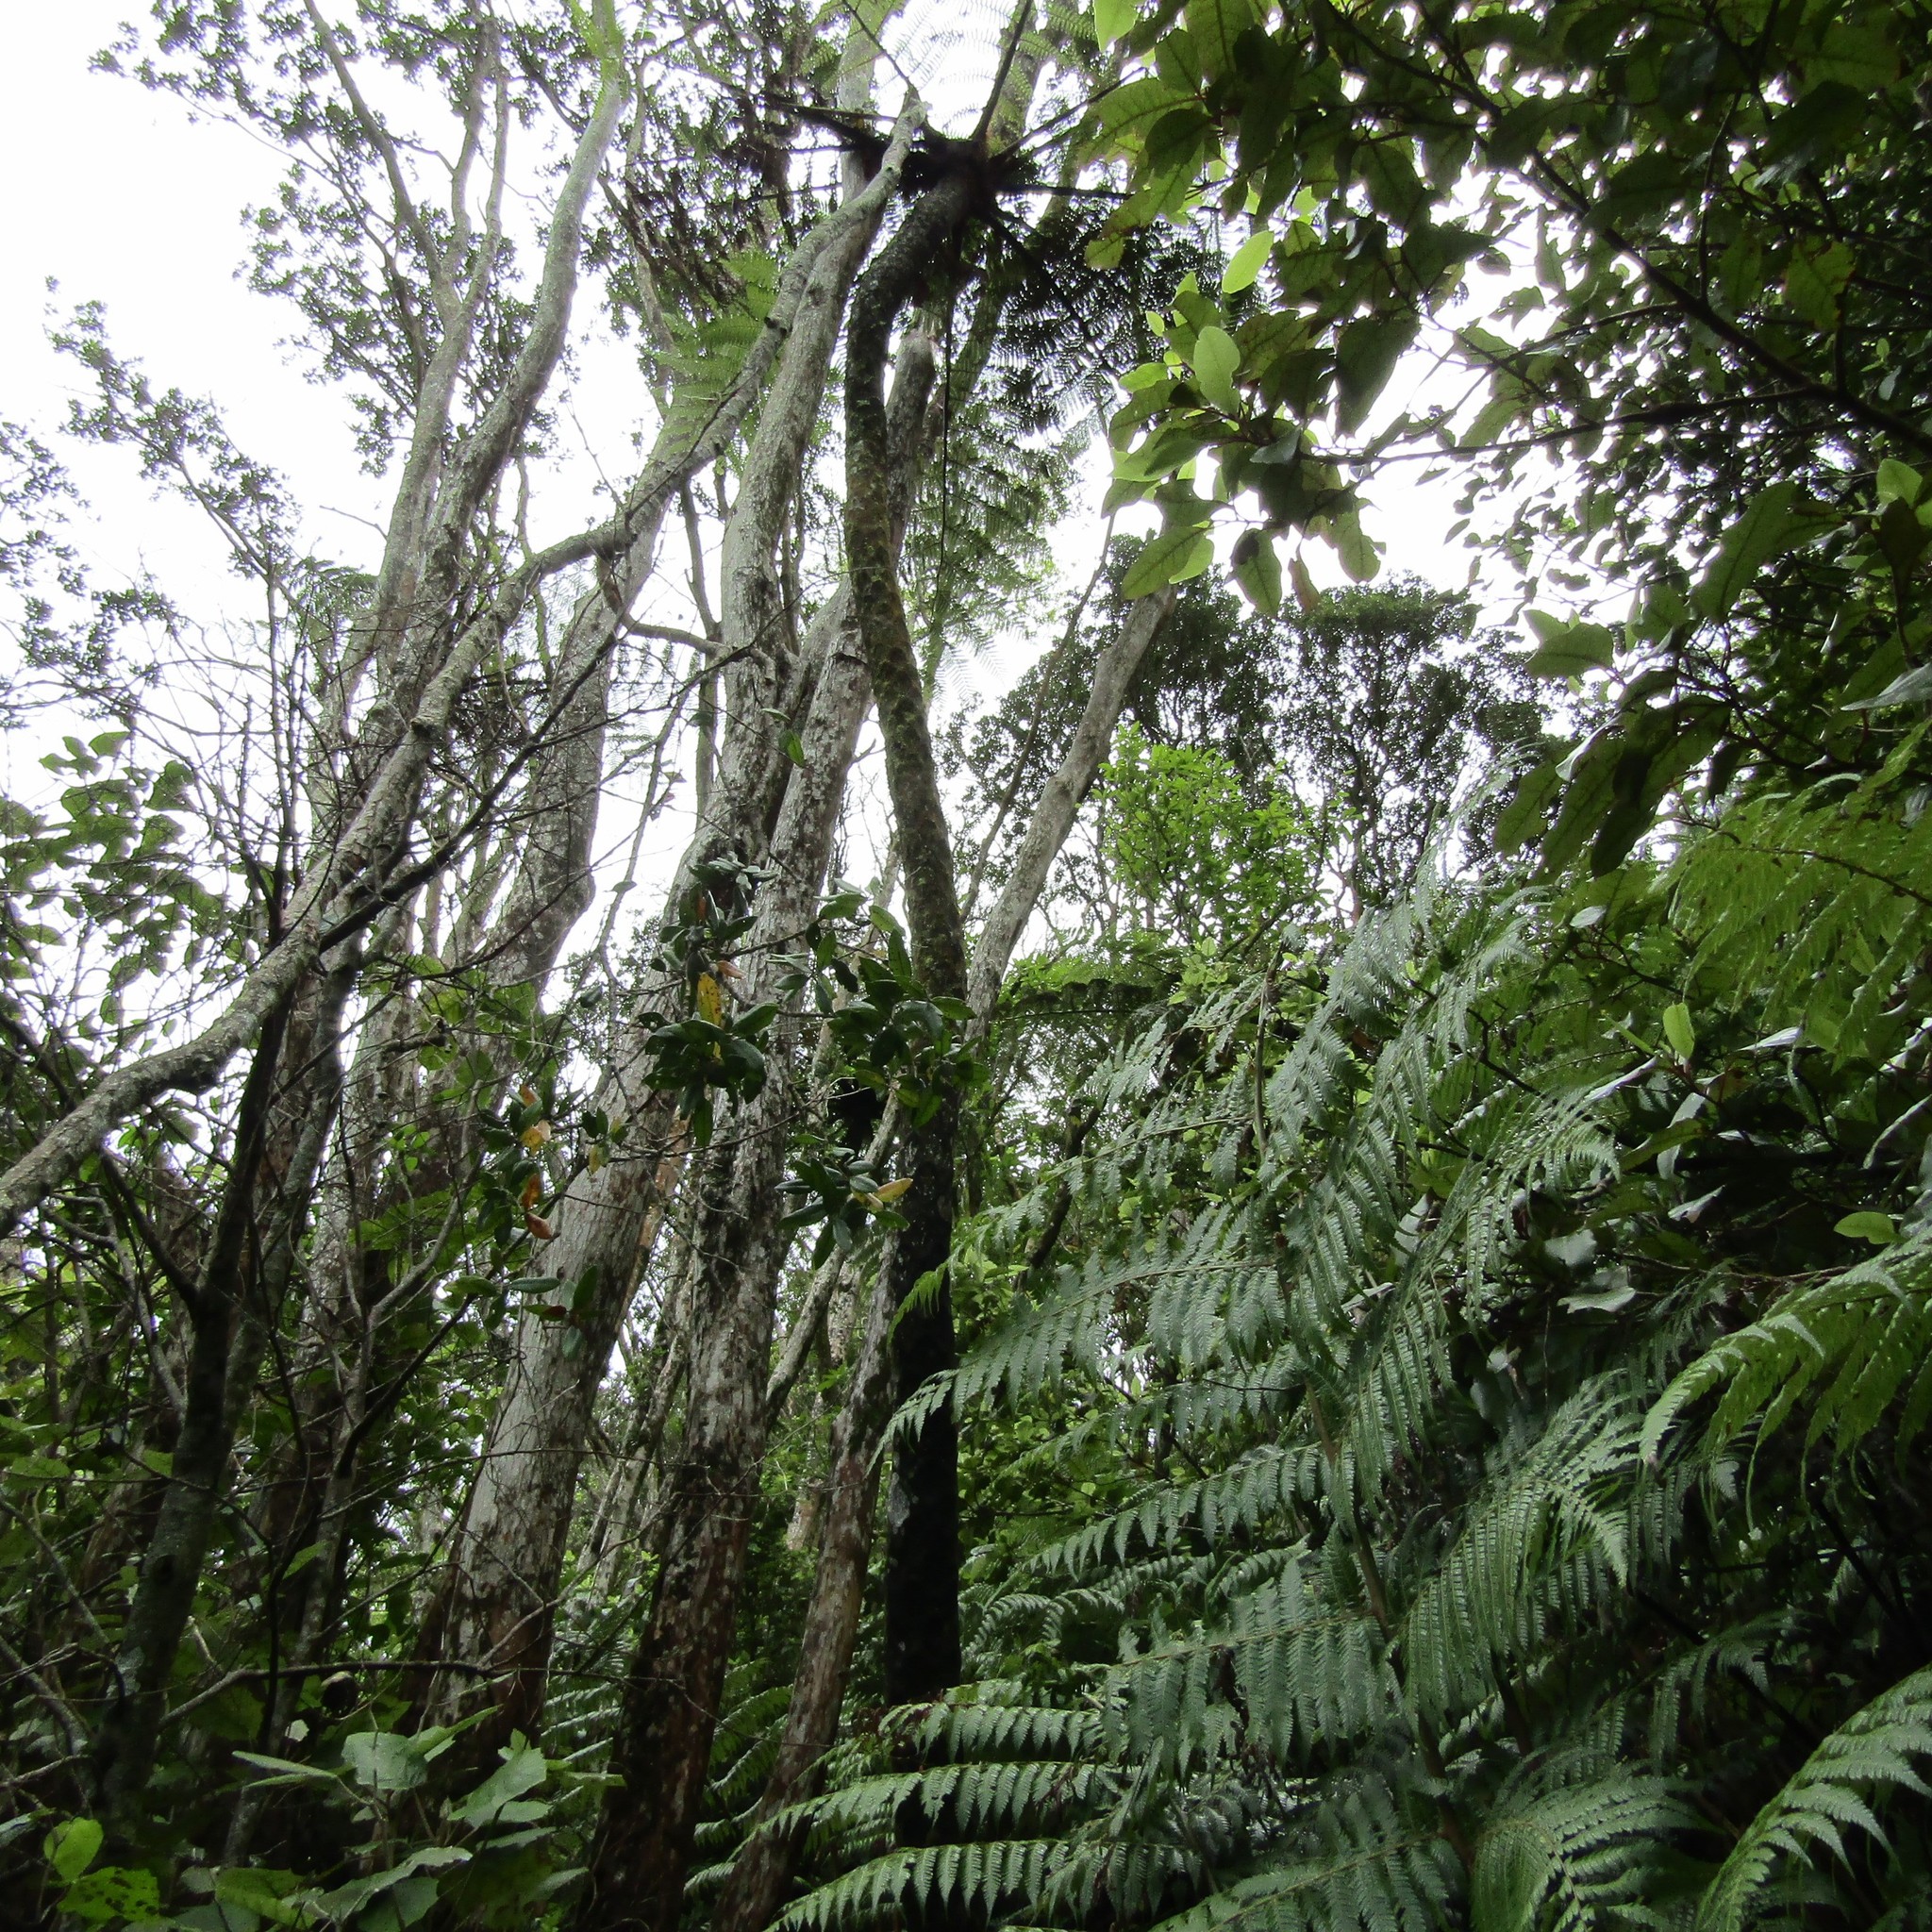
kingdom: Plantae
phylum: Tracheophyta
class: Polypodiopsida
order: Cyatheales
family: Cyatheaceae
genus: Sphaeropteris
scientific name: Sphaeropteris medullaris
